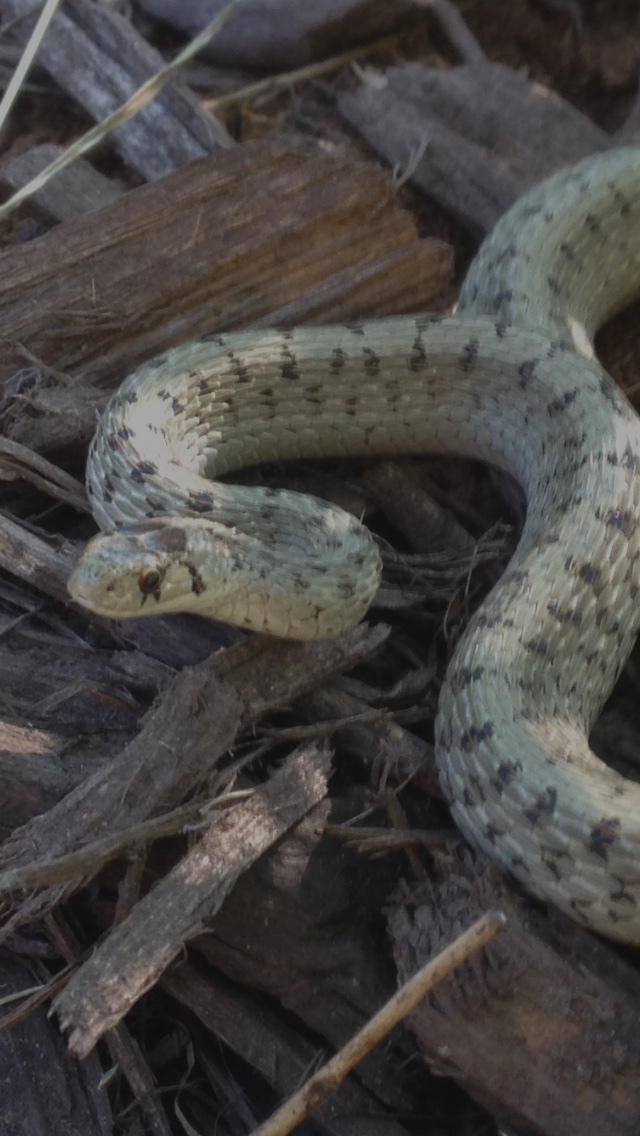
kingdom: Animalia
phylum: Chordata
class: Squamata
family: Colubridae
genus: Storeria
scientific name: Storeria dekayi
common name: (dekay’s) brown snake
